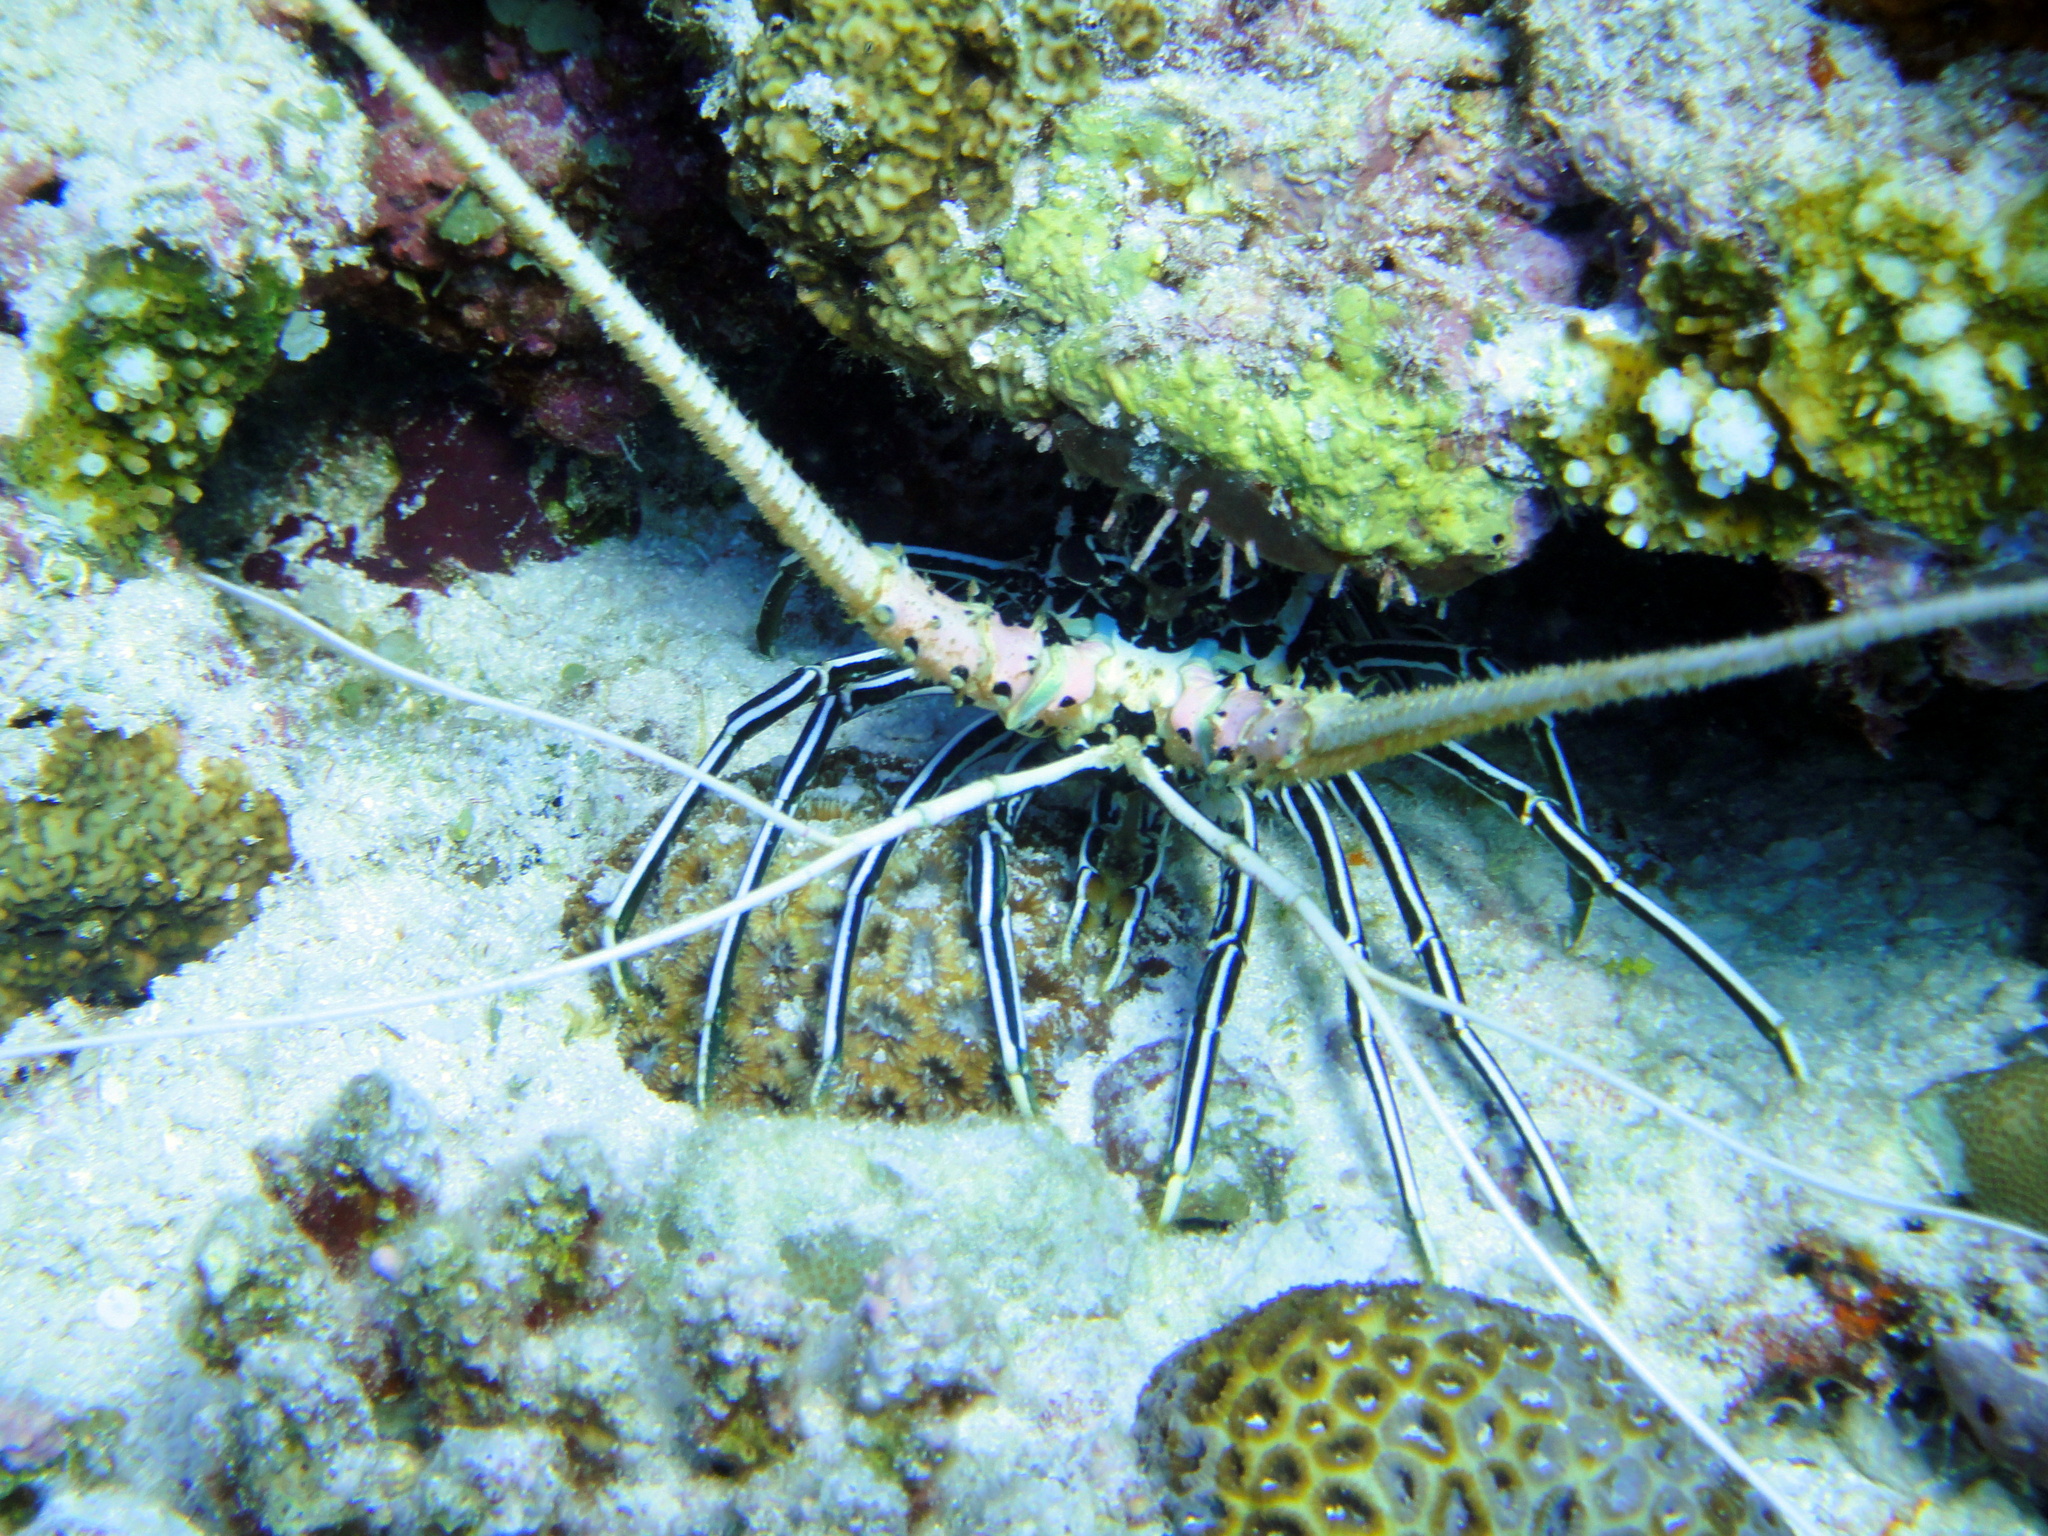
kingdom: Animalia
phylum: Arthropoda
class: Malacostraca
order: Decapoda
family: Palinuridae
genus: Panulirus
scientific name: Panulirus versicolor
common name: Painted spiny lobster
